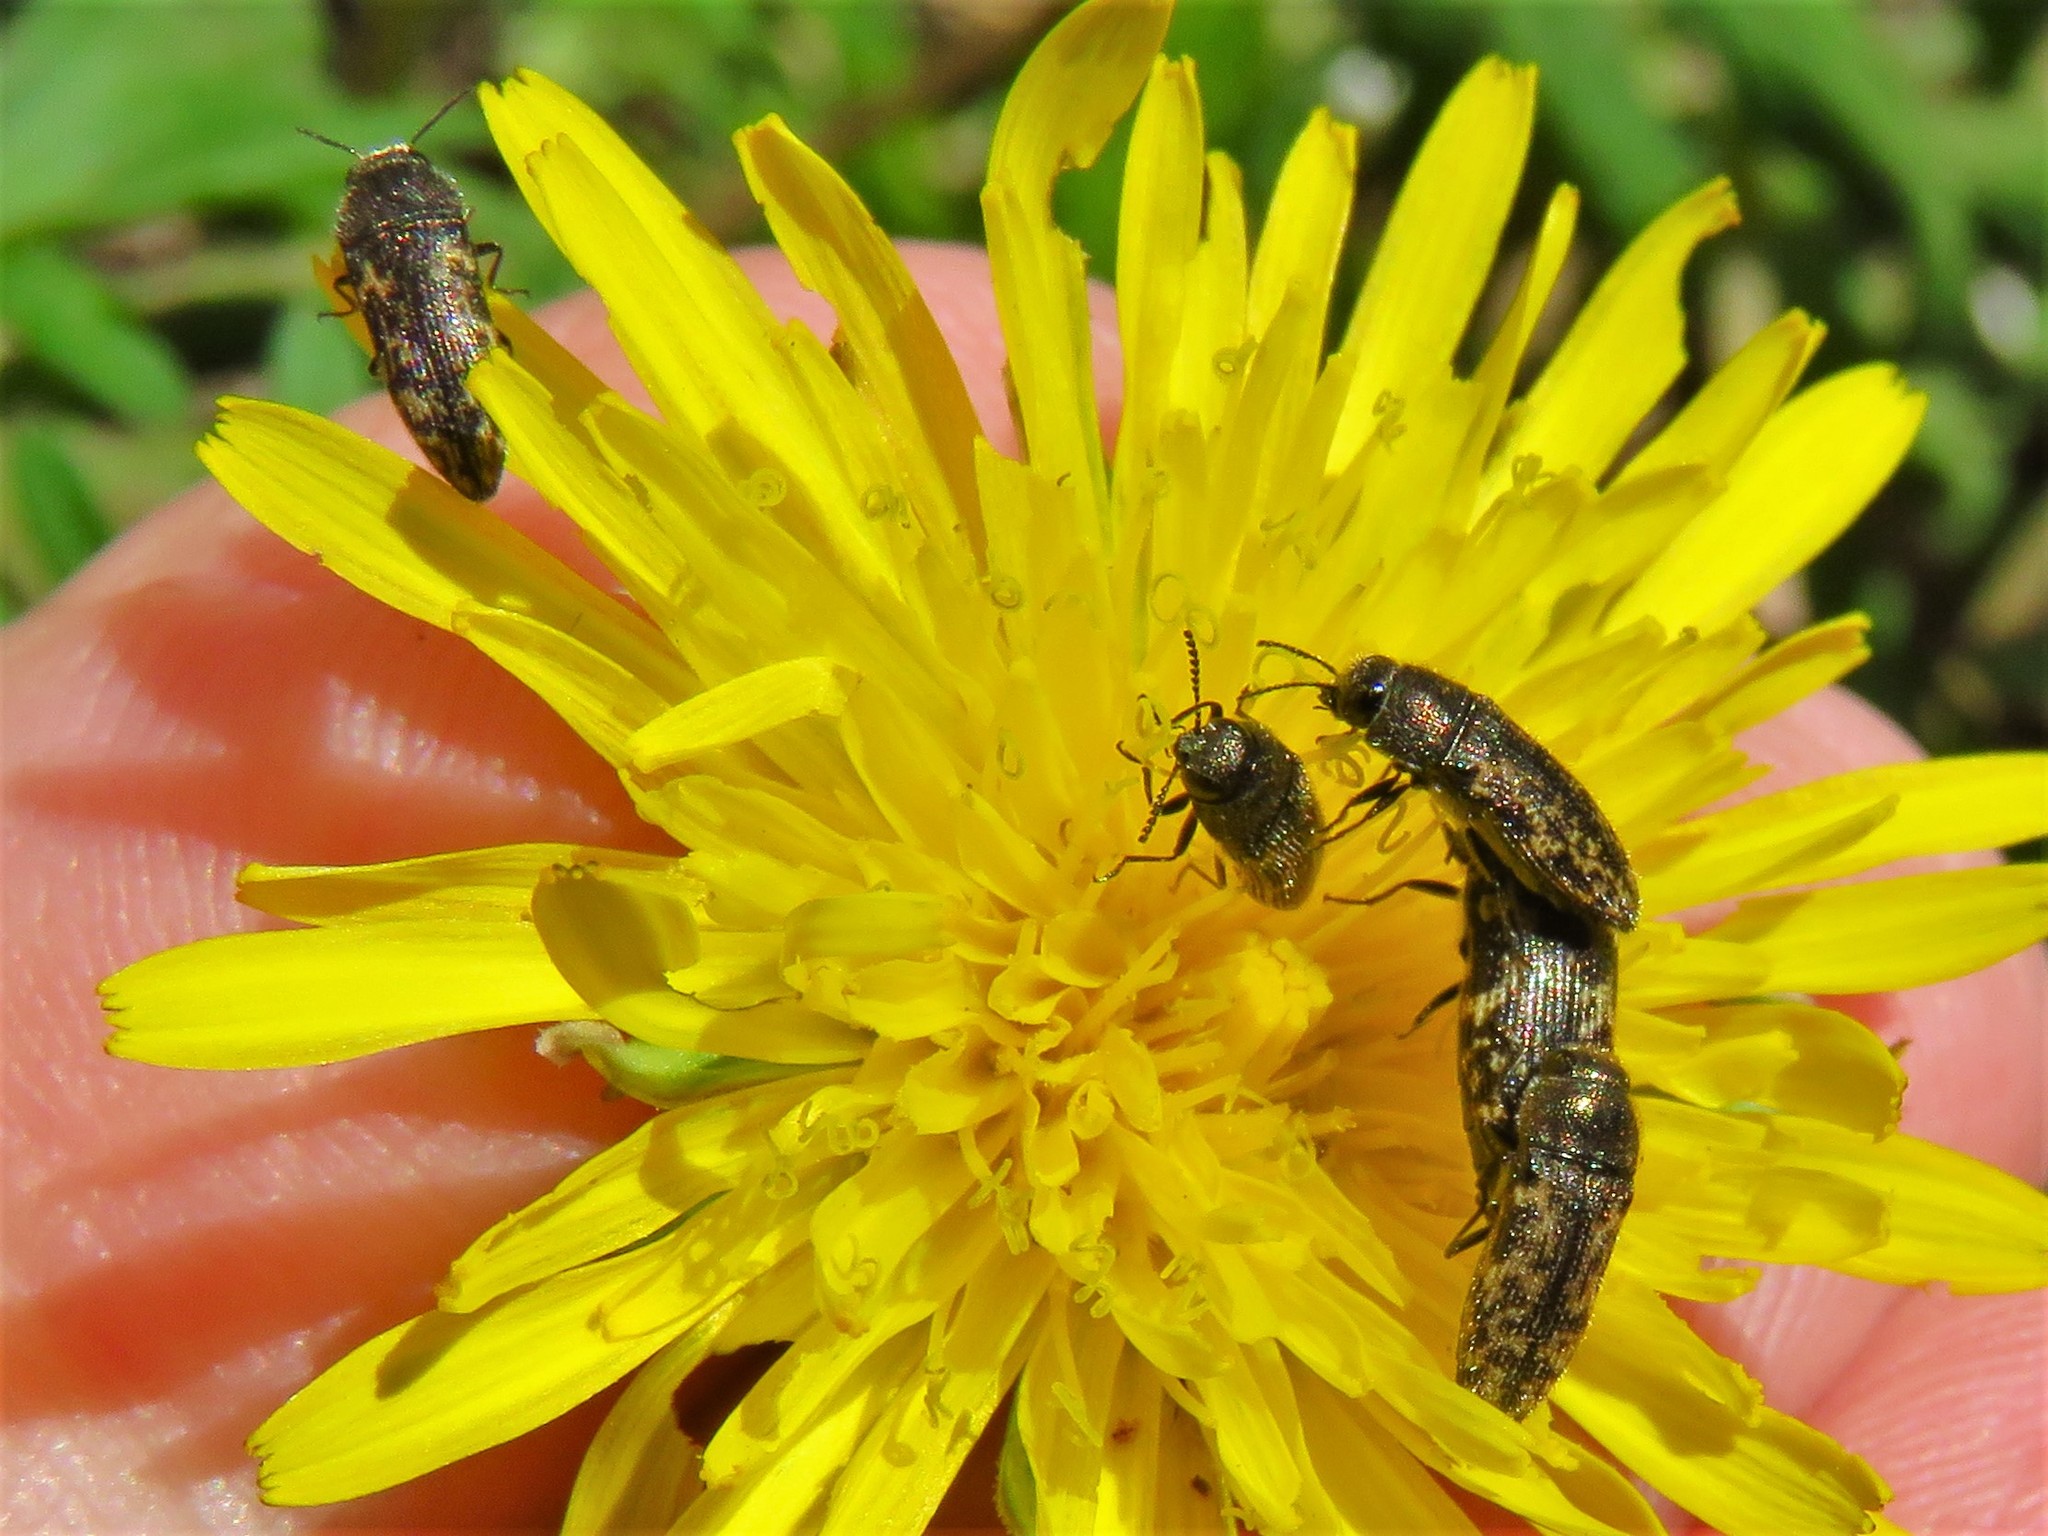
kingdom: Animalia
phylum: Arthropoda
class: Insecta
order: Coleoptera
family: Buprestidae
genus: Acmaeodera
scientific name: Acmaeodera neglecta
